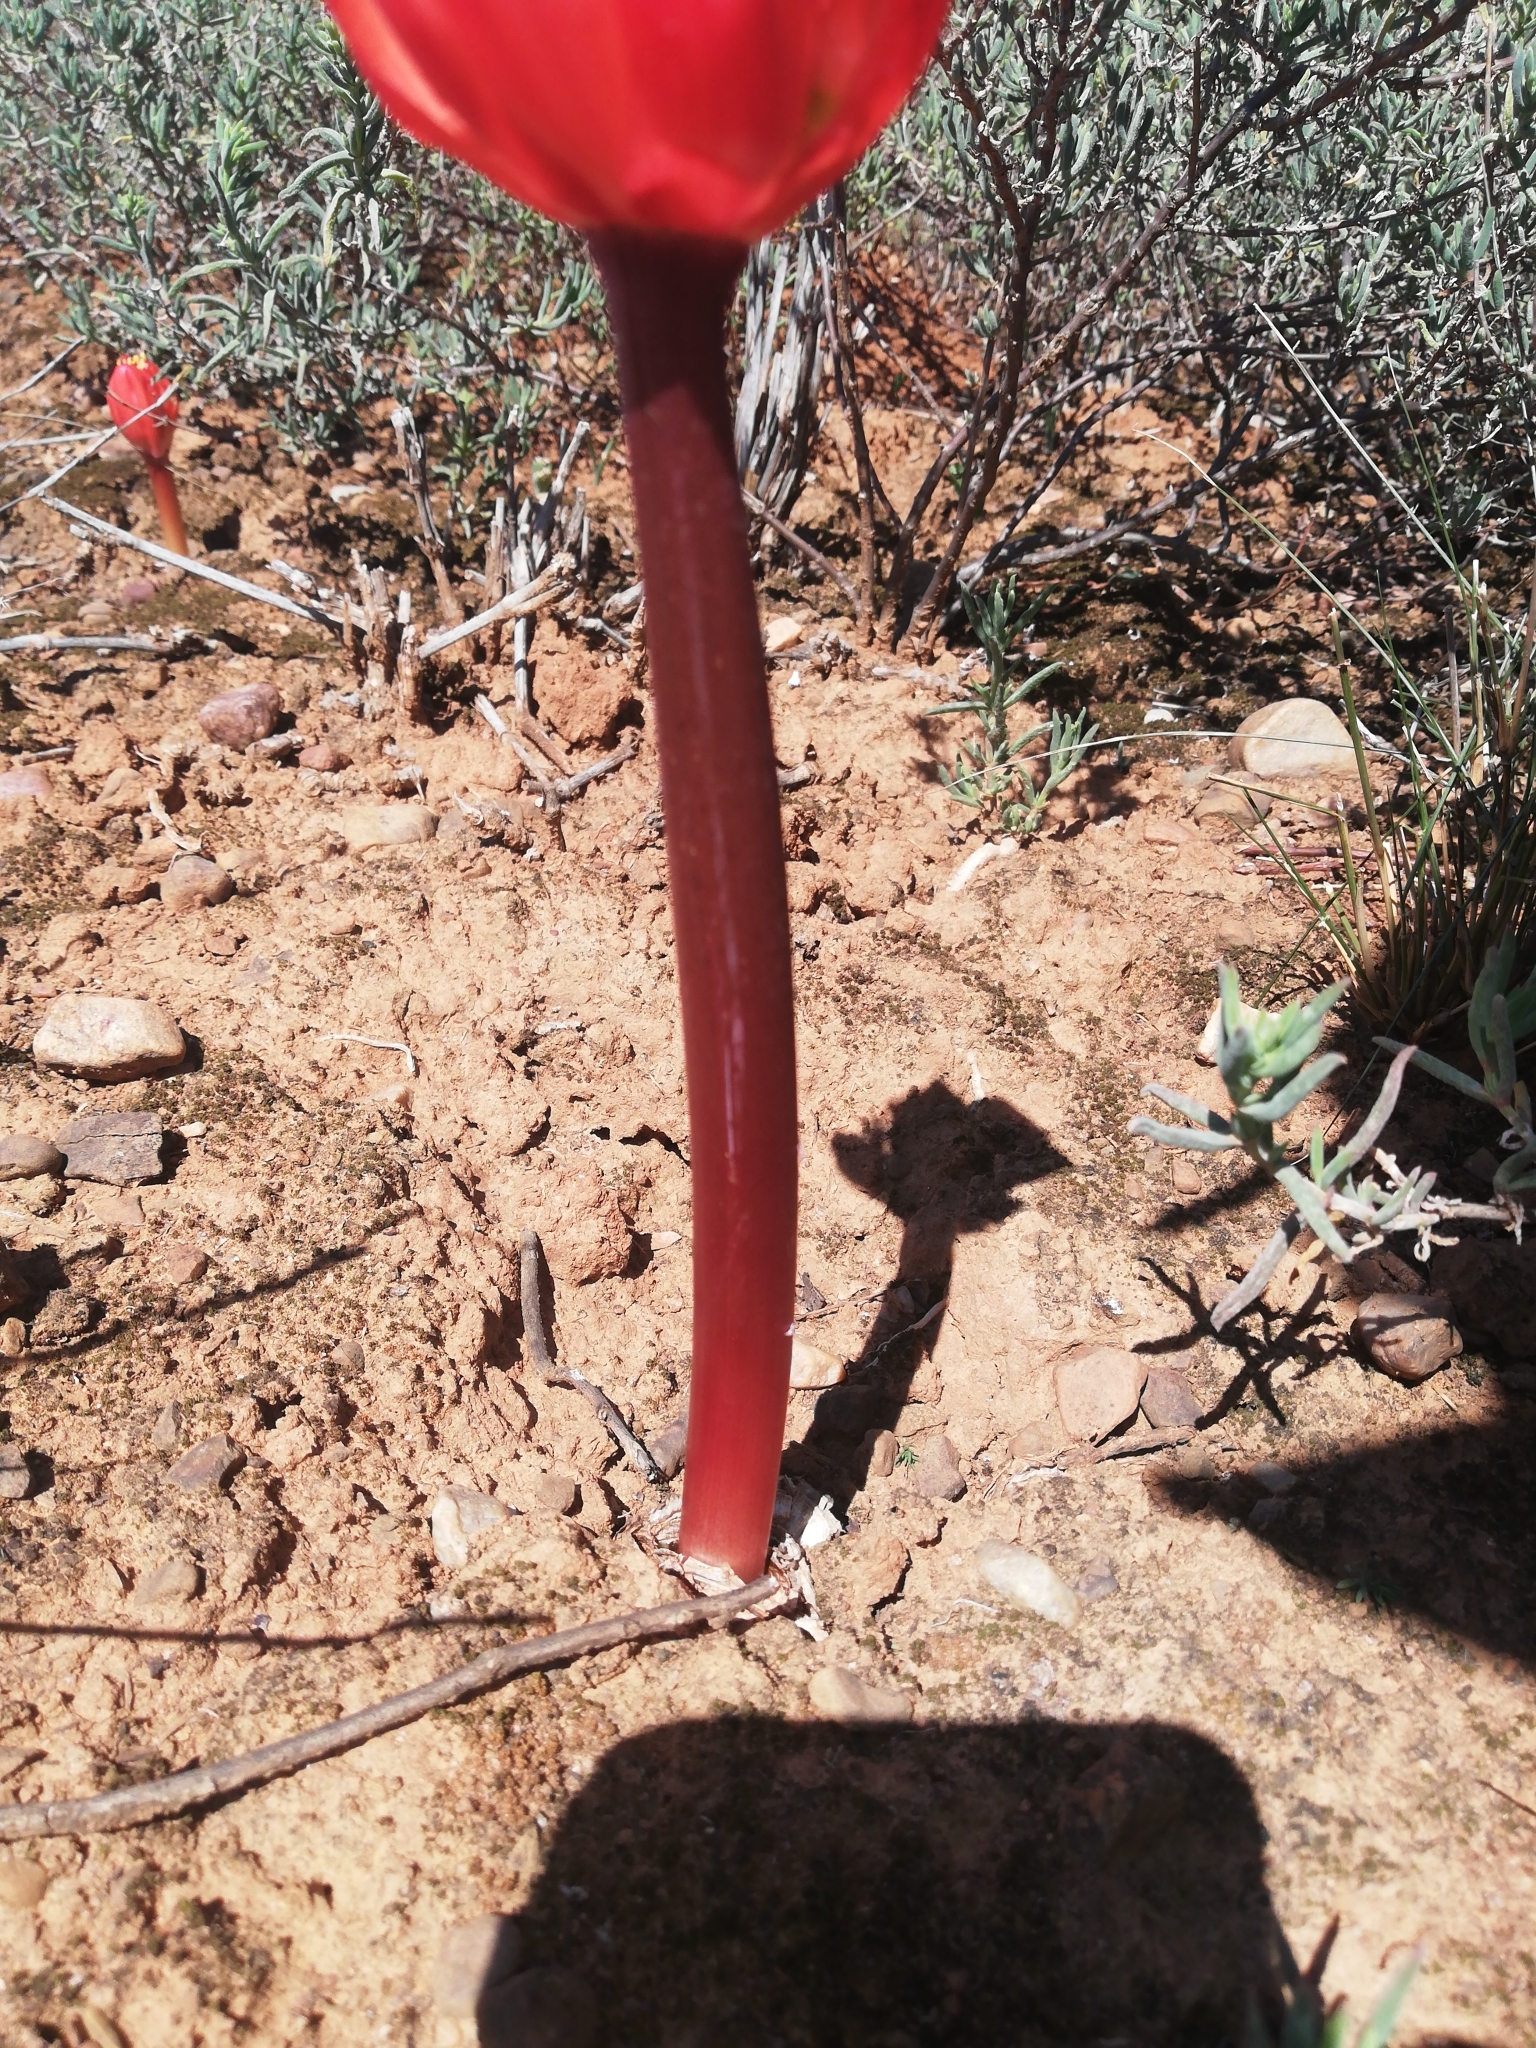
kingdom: Plantae
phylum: Tracheophyta
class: Liliopsida
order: Asparagales
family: Amaryllidaceae
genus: Haemanthus
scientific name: Haemanthus sanguineus
